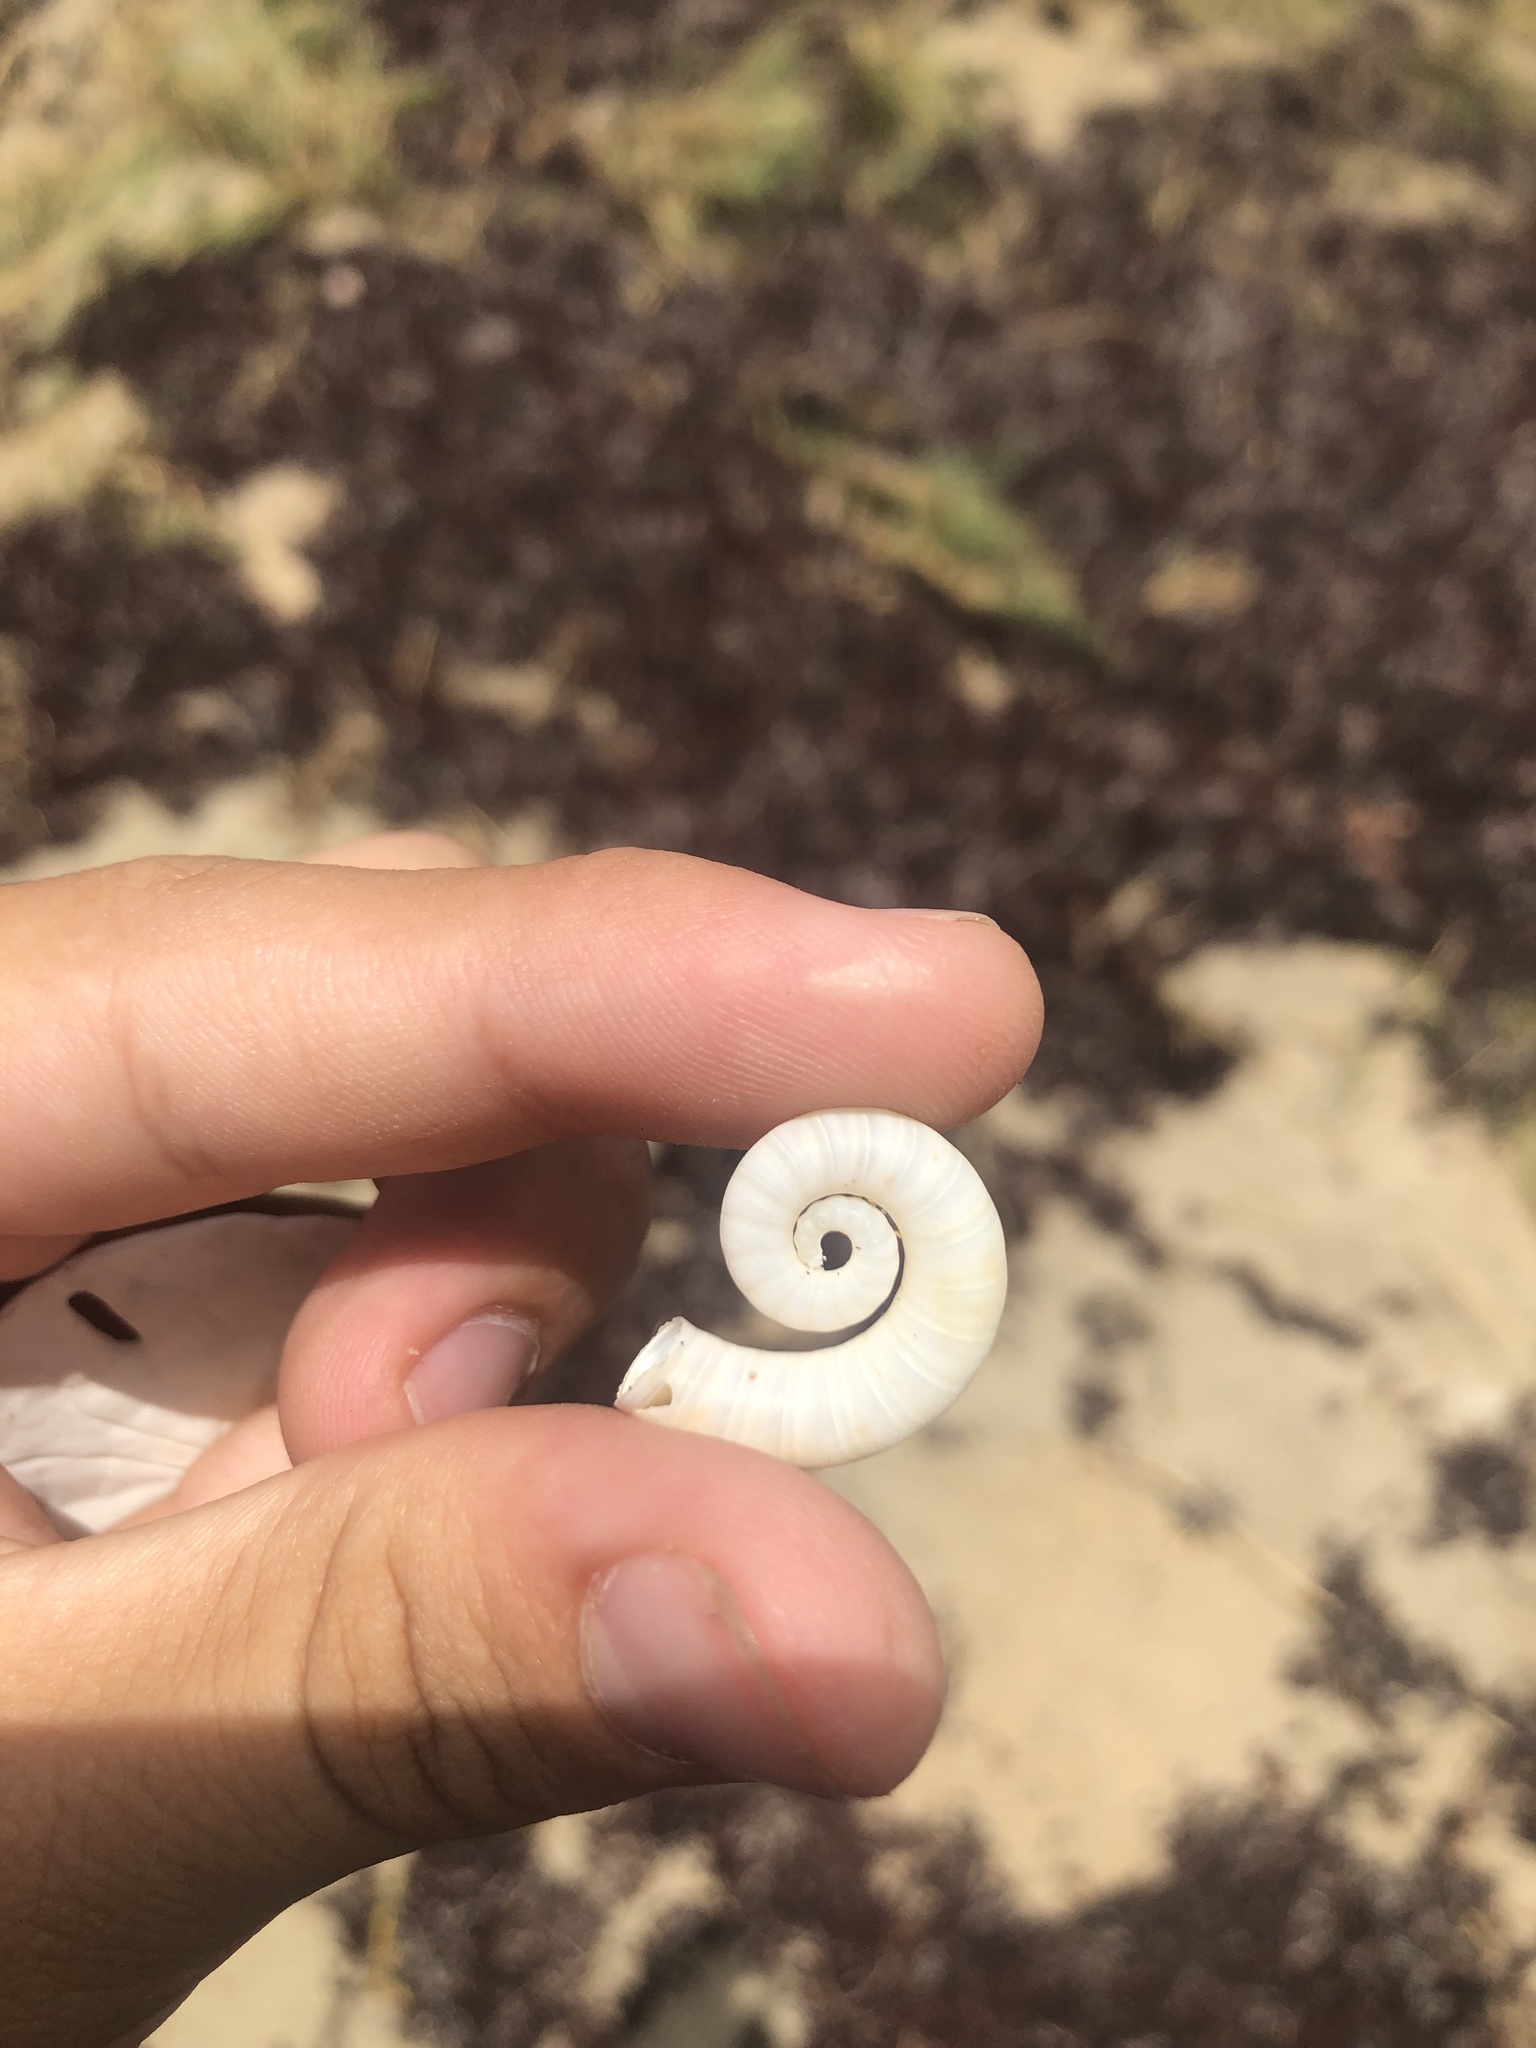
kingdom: Animalia
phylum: Mollusca
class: Cephalopoda
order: Spirulida
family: Spirulidae
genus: Spirula
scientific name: Spirula spirula
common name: Ram's horn squid
